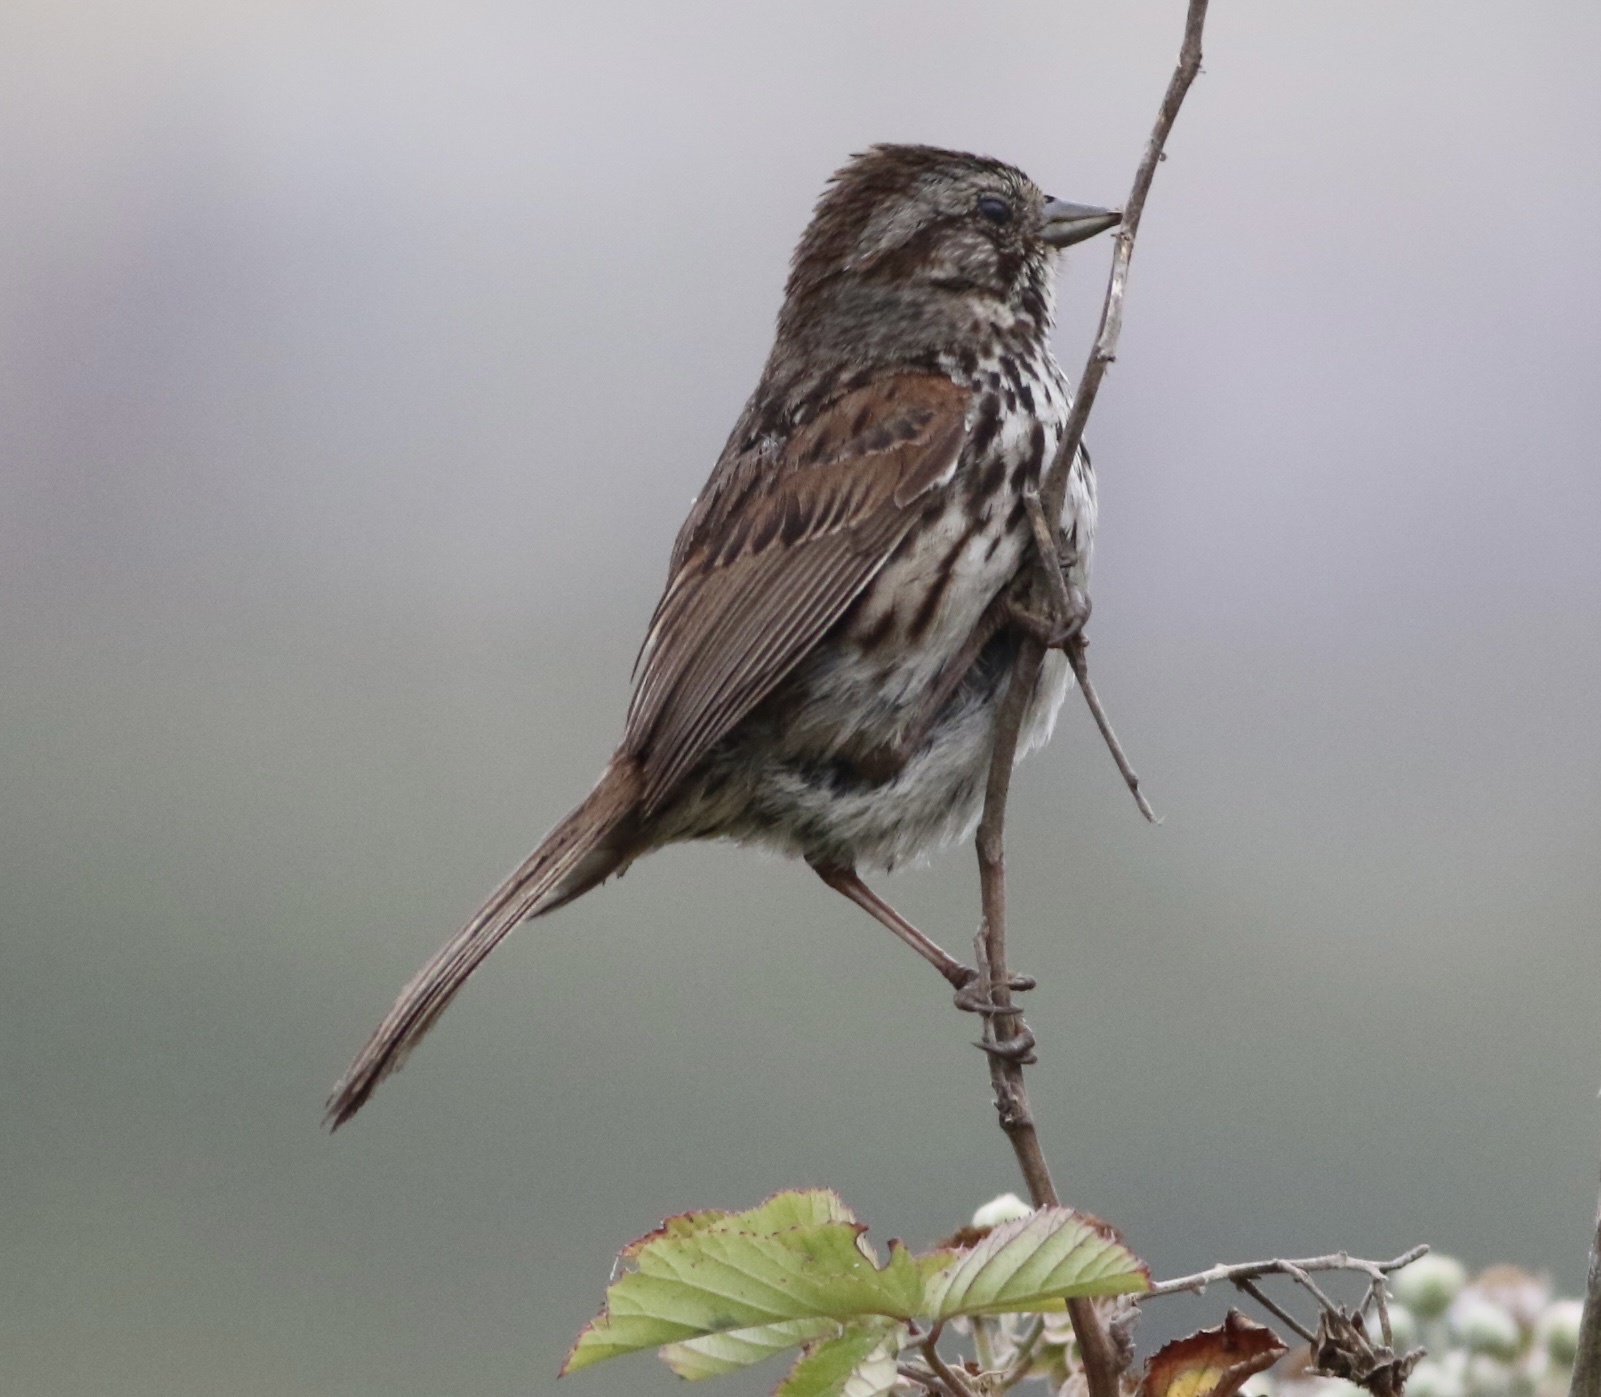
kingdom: Animalia
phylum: Chordata
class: Aves
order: Passeriformes
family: Passerellidae
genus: Melospiza
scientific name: Melospiza melodia
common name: Song sparrow
